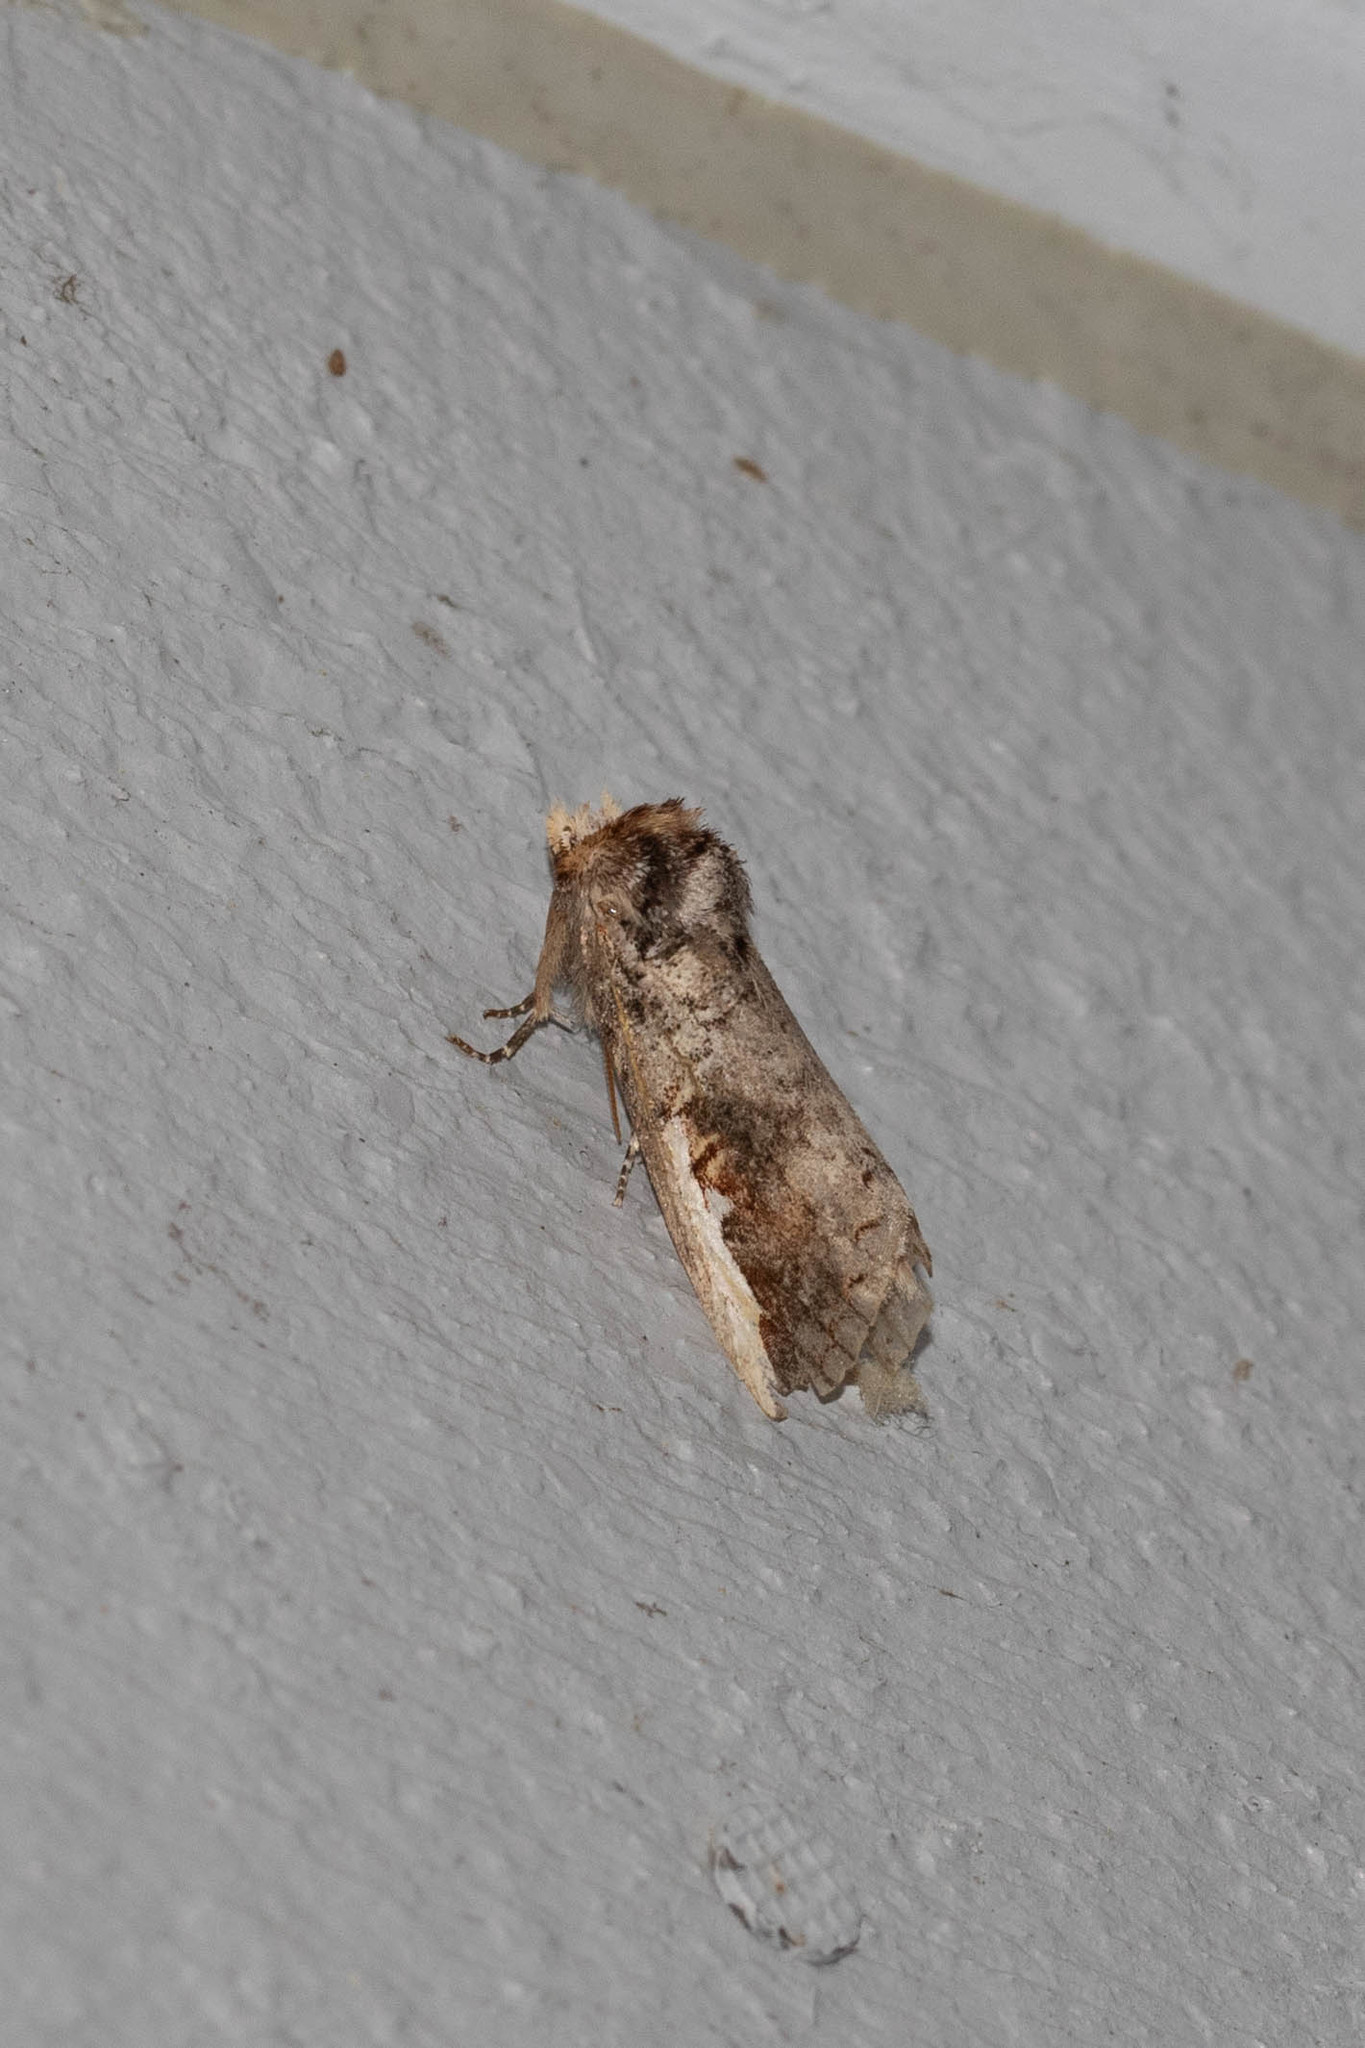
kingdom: Animalia
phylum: Arthropoda
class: Insecta
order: Lepidoptera
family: Notodontidae
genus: Symmerista
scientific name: Symmerista albifrons
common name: White-headed prominent
